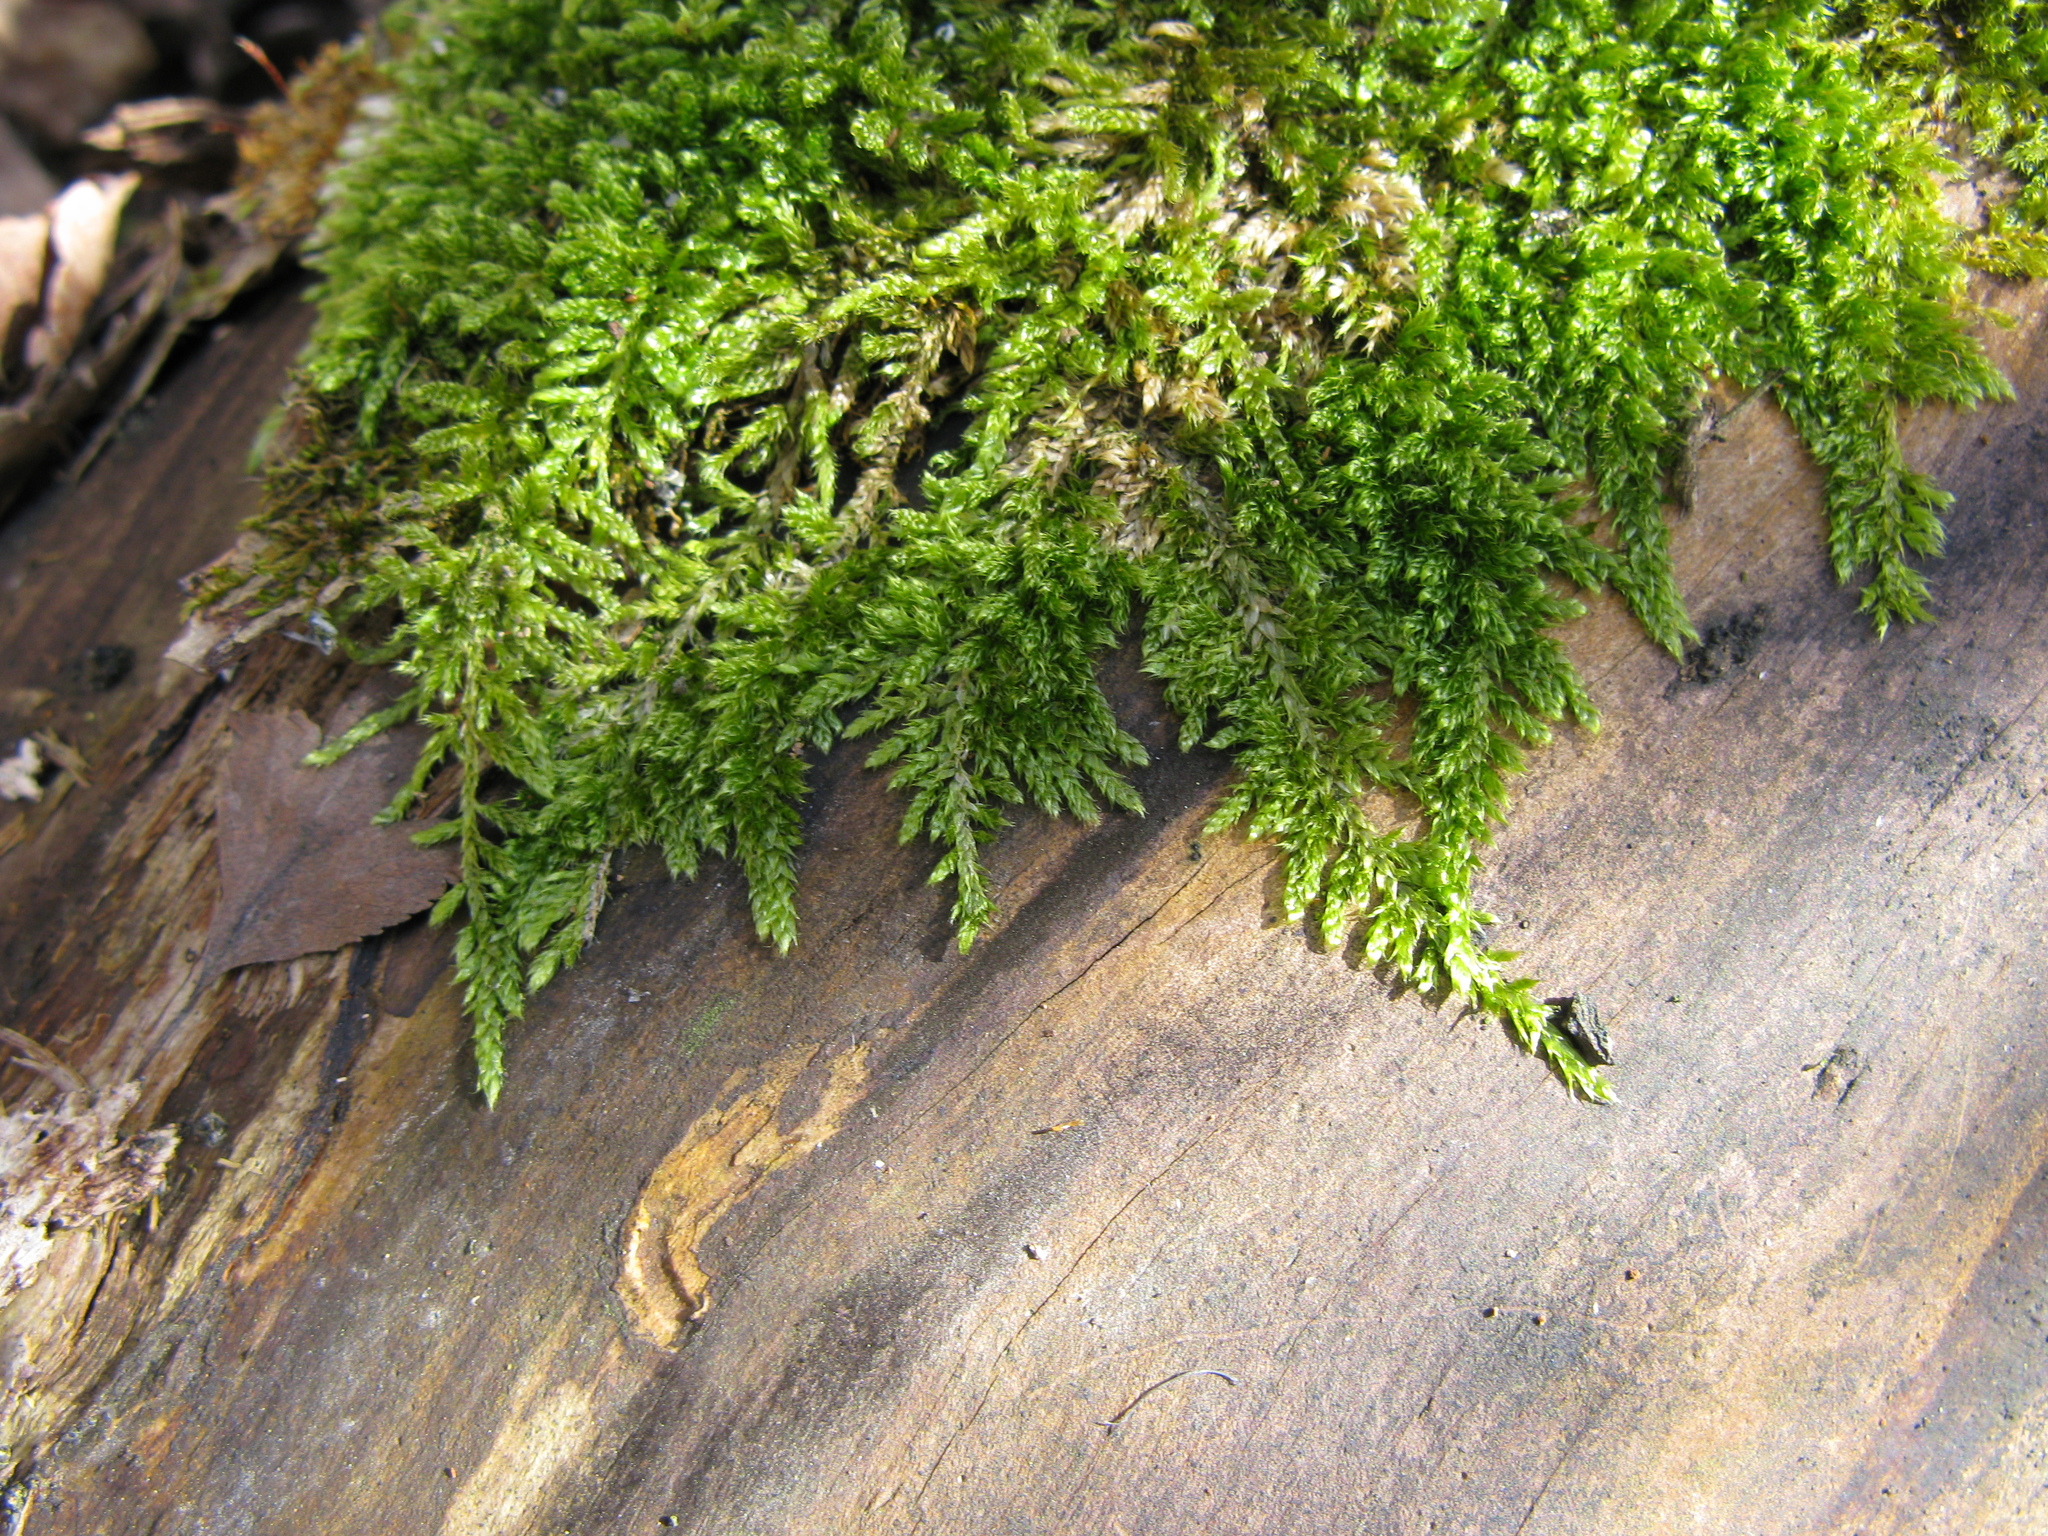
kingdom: Plantae
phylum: Bryophyta
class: Bryopsida
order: Hypnales
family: Hypnaceae
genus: Hypnum
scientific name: Hypnum cupressiforme
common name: Cypress-leaved plait-moss
